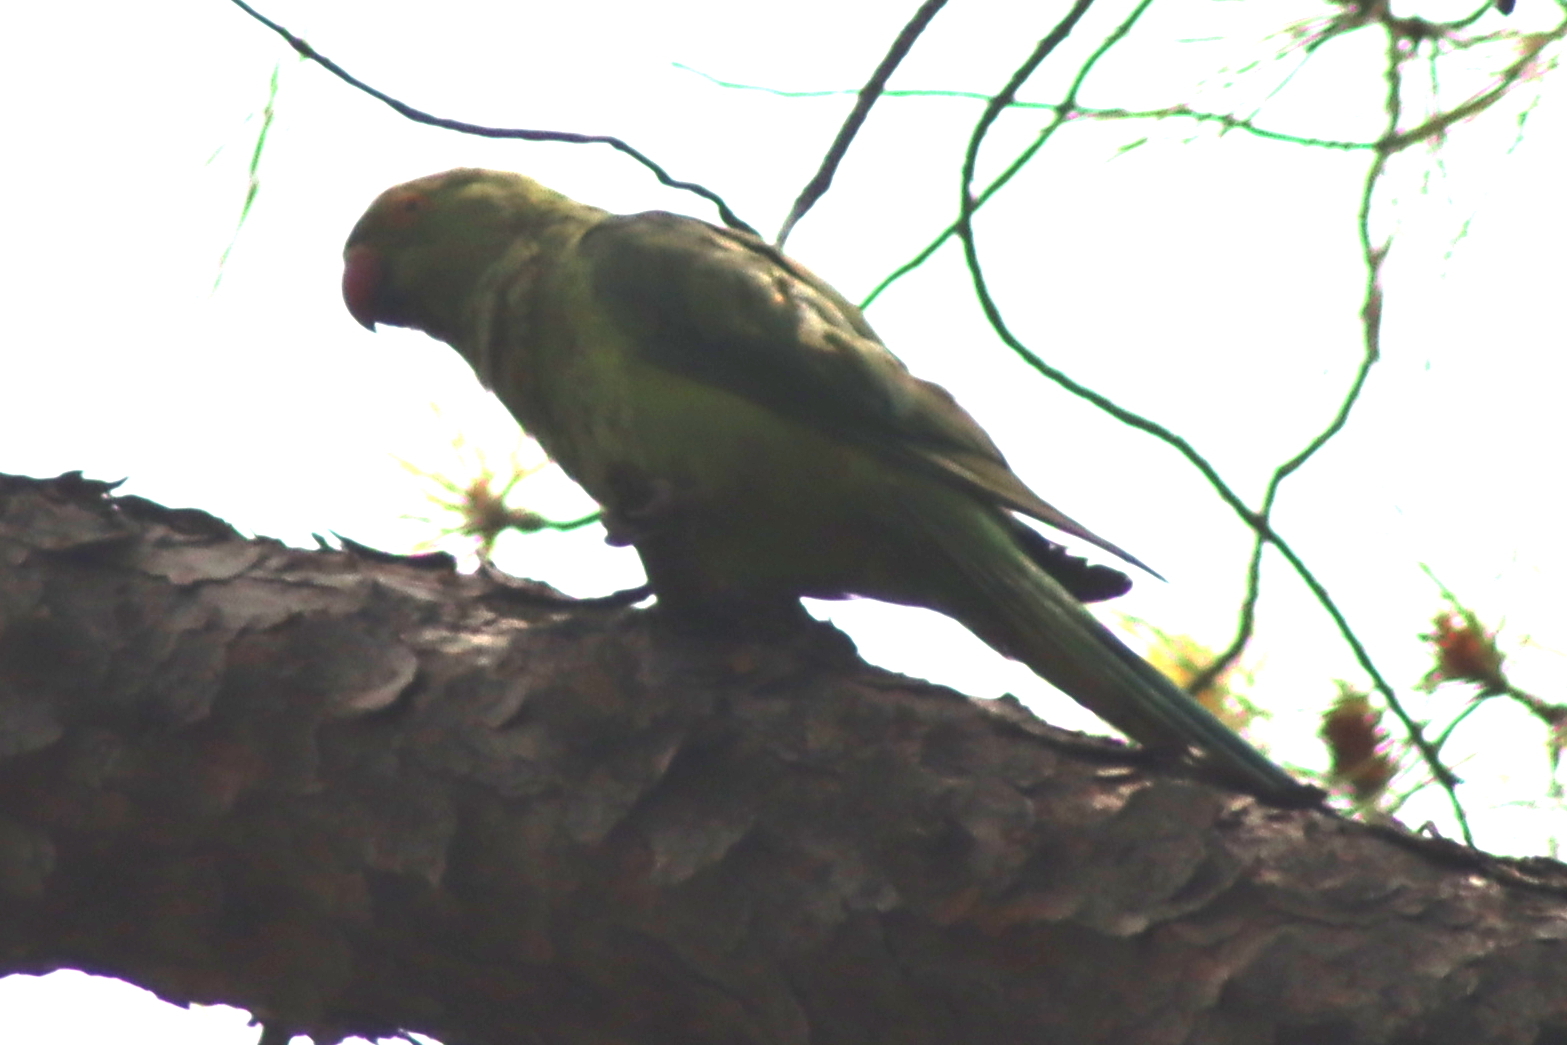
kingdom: Animalia
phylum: Chordata
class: Aves
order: Psittaciformes
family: Psittacidae
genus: Psittacula
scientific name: Psittacula krameri
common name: Rose-ringed parakeet
